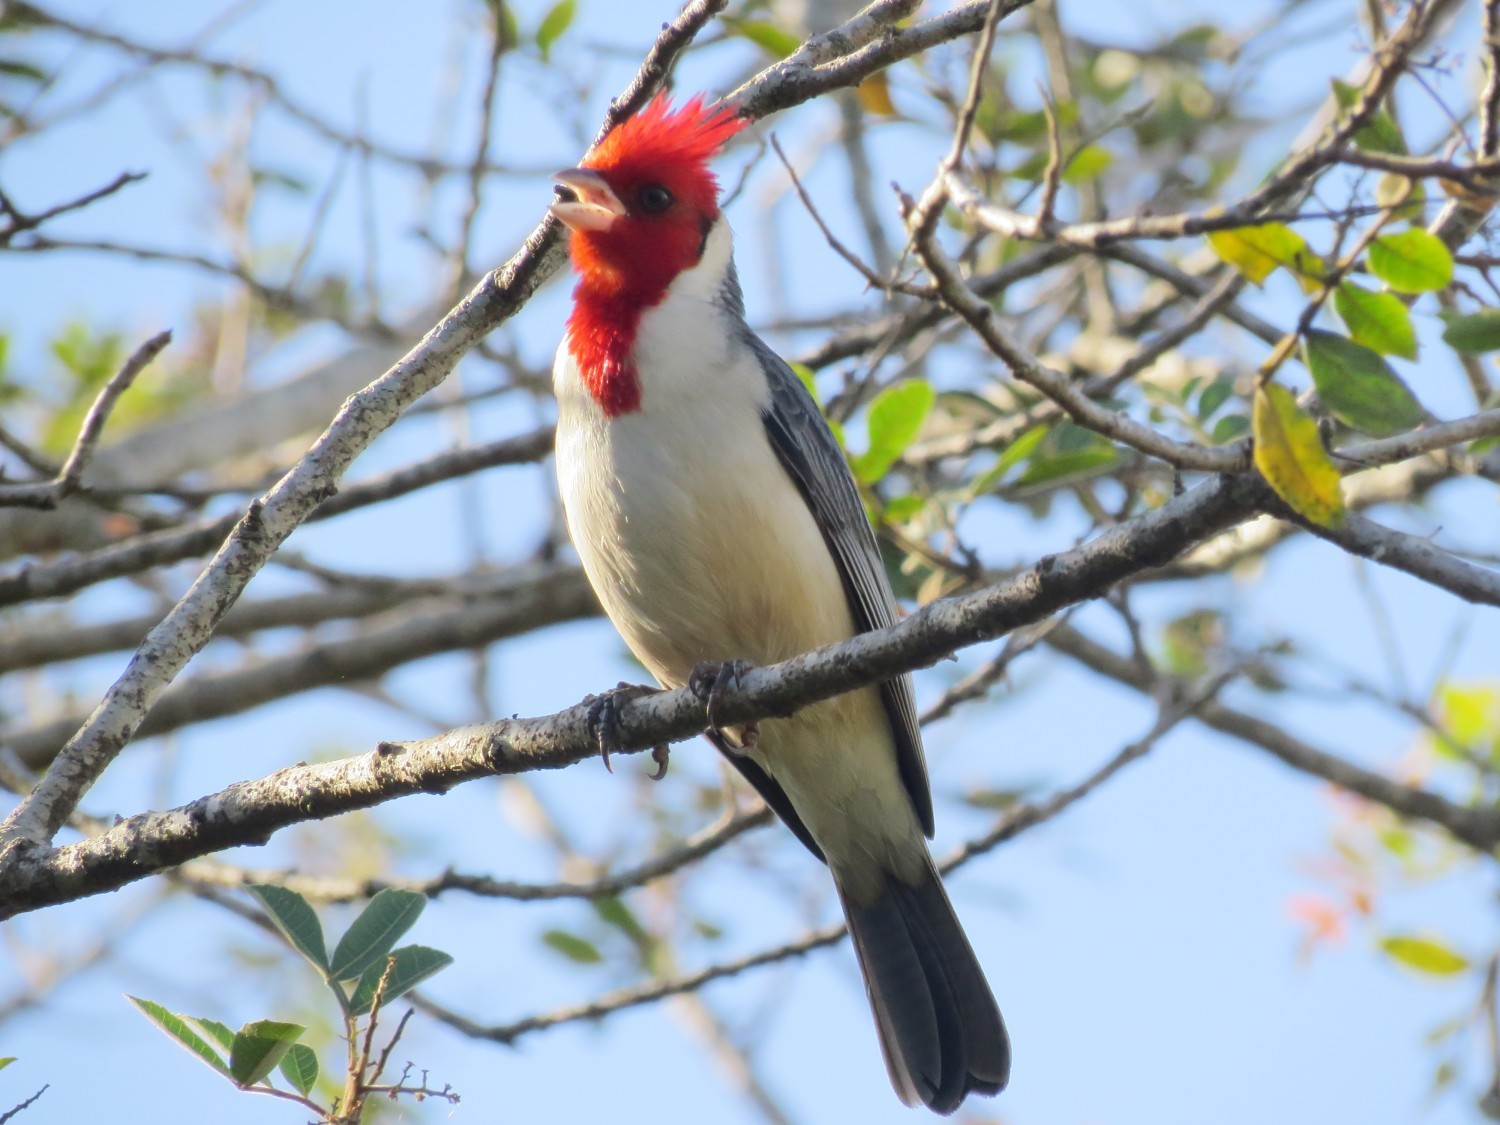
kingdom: Animalia
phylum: Chordata
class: Aves
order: Passeriformes
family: Thraupidae
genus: Paroaria
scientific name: Paroaria coronata
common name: Red-crested cardinal
